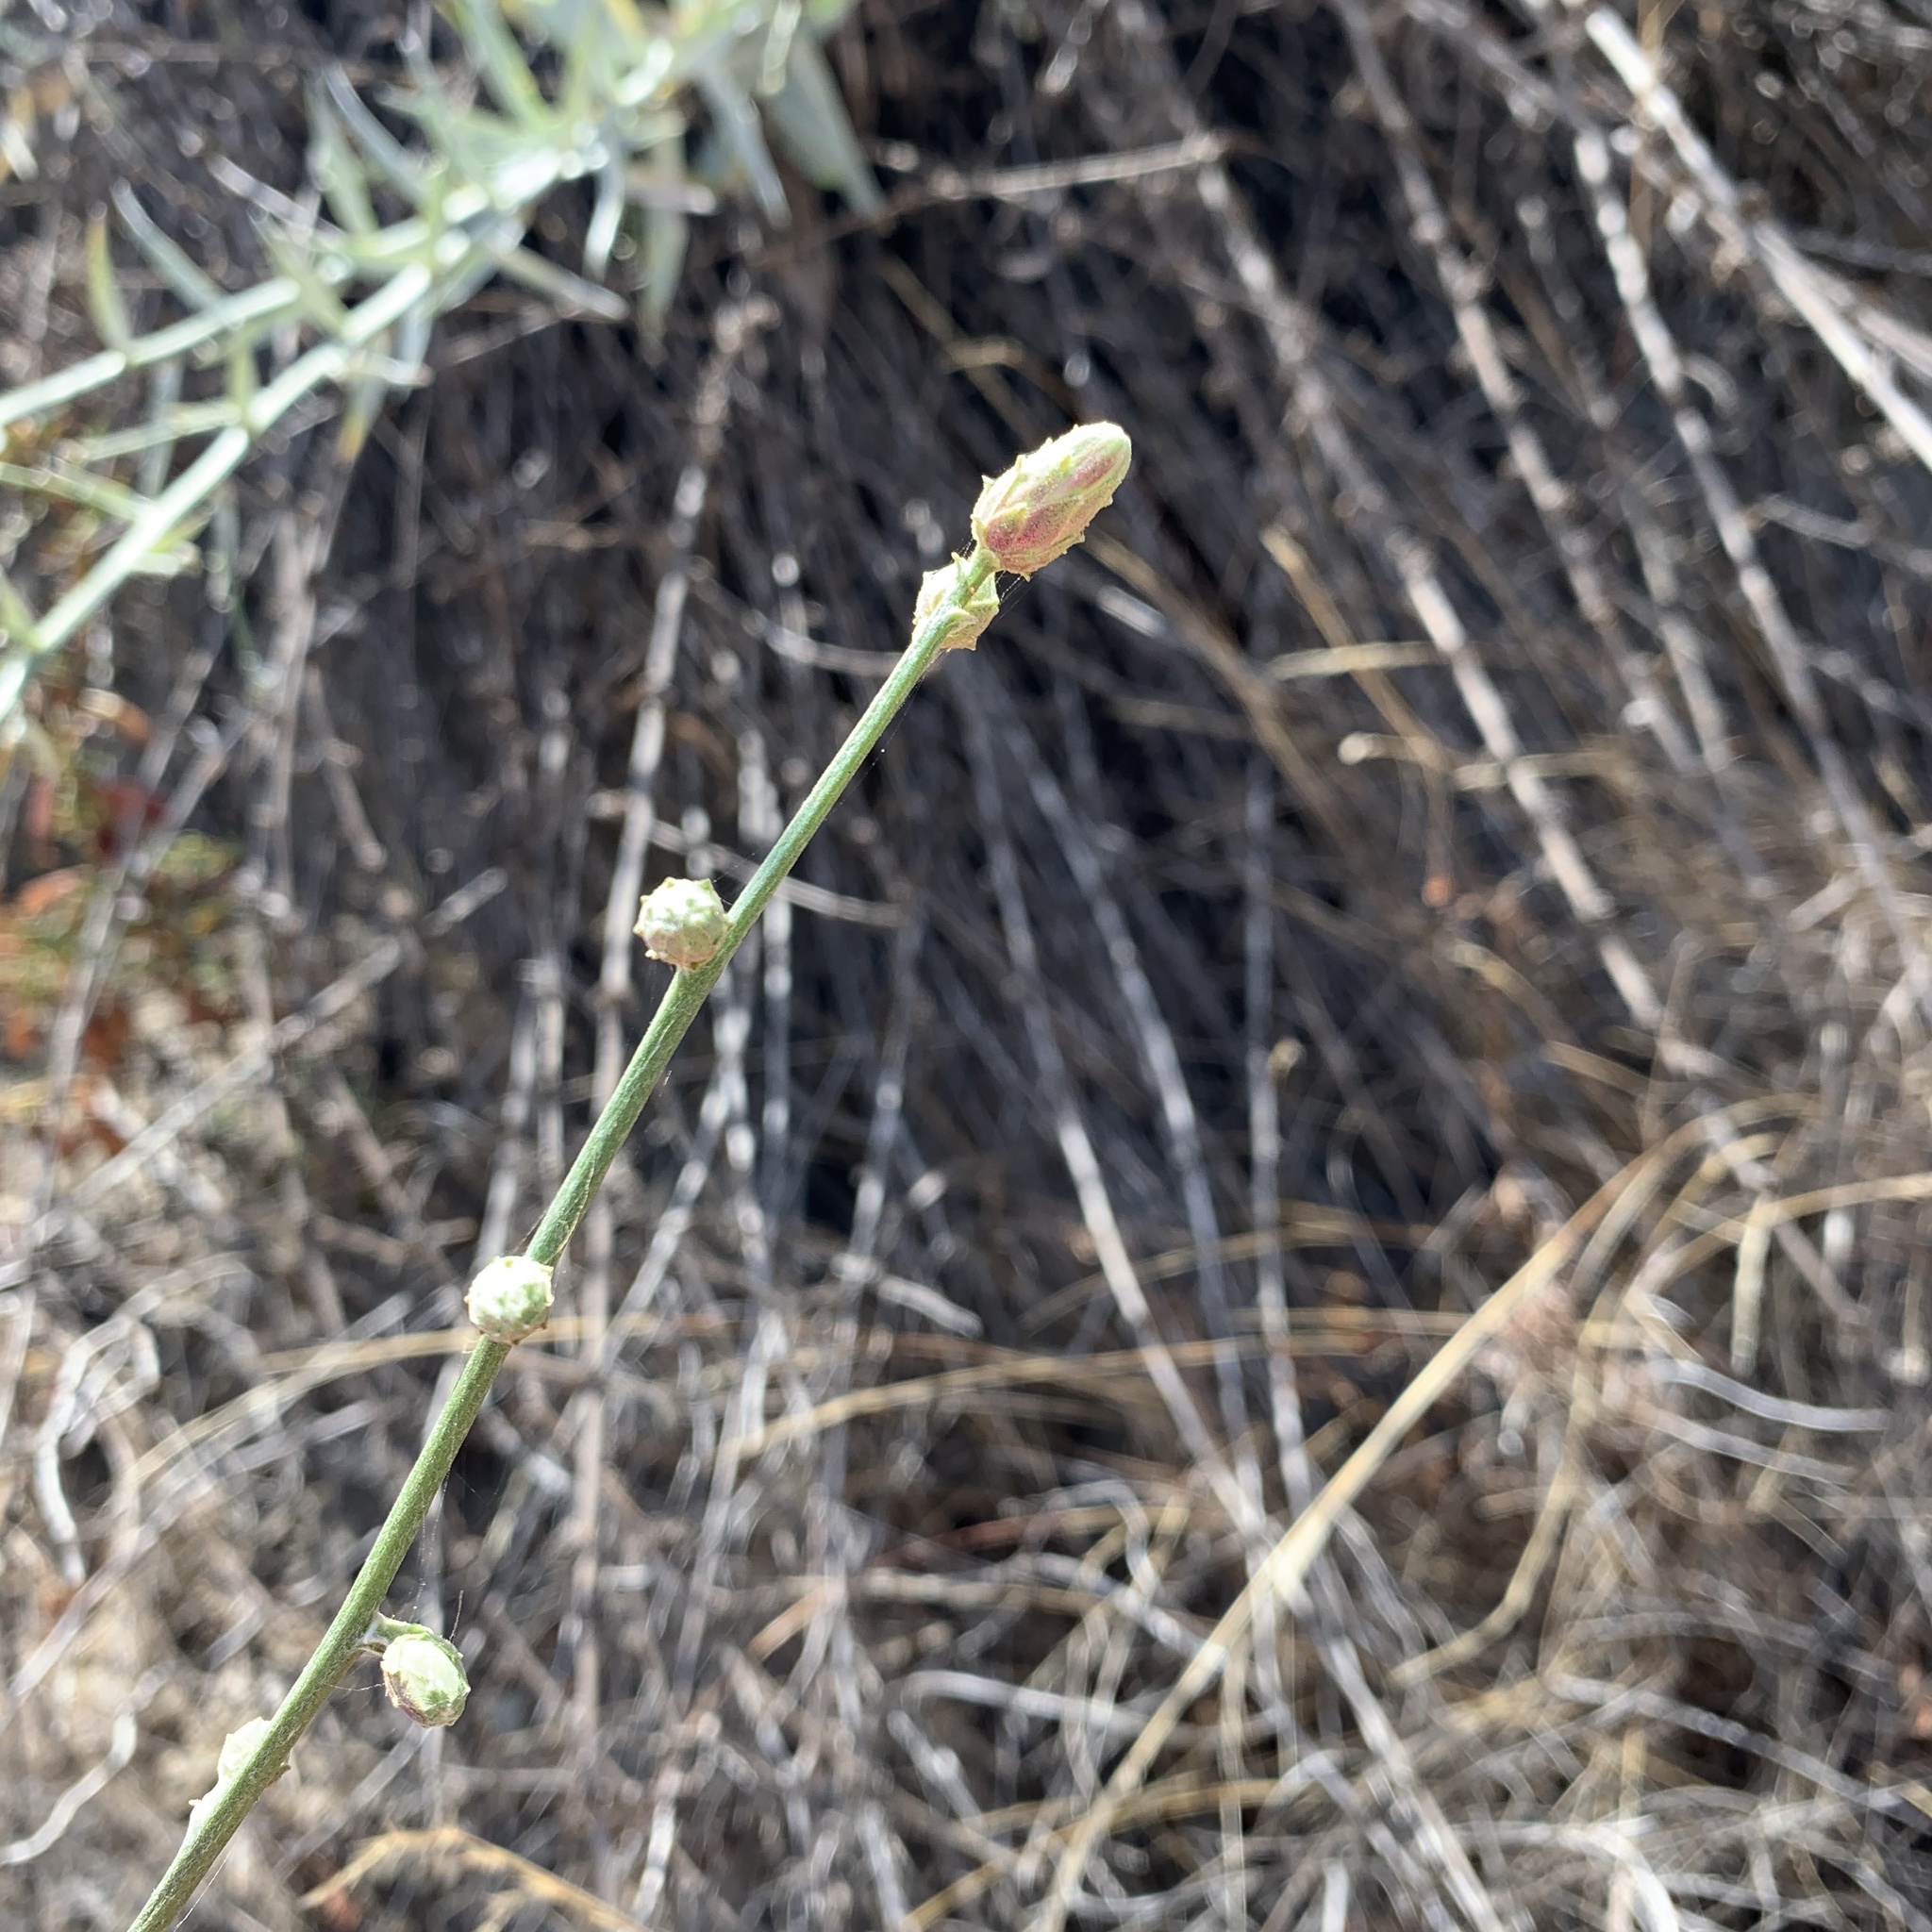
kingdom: Plantae
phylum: Tracheophyta
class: Magnoliopsida
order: Asterales
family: Asteraceae
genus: Stephanomeria
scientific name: Stephanomeria cichoriacea
